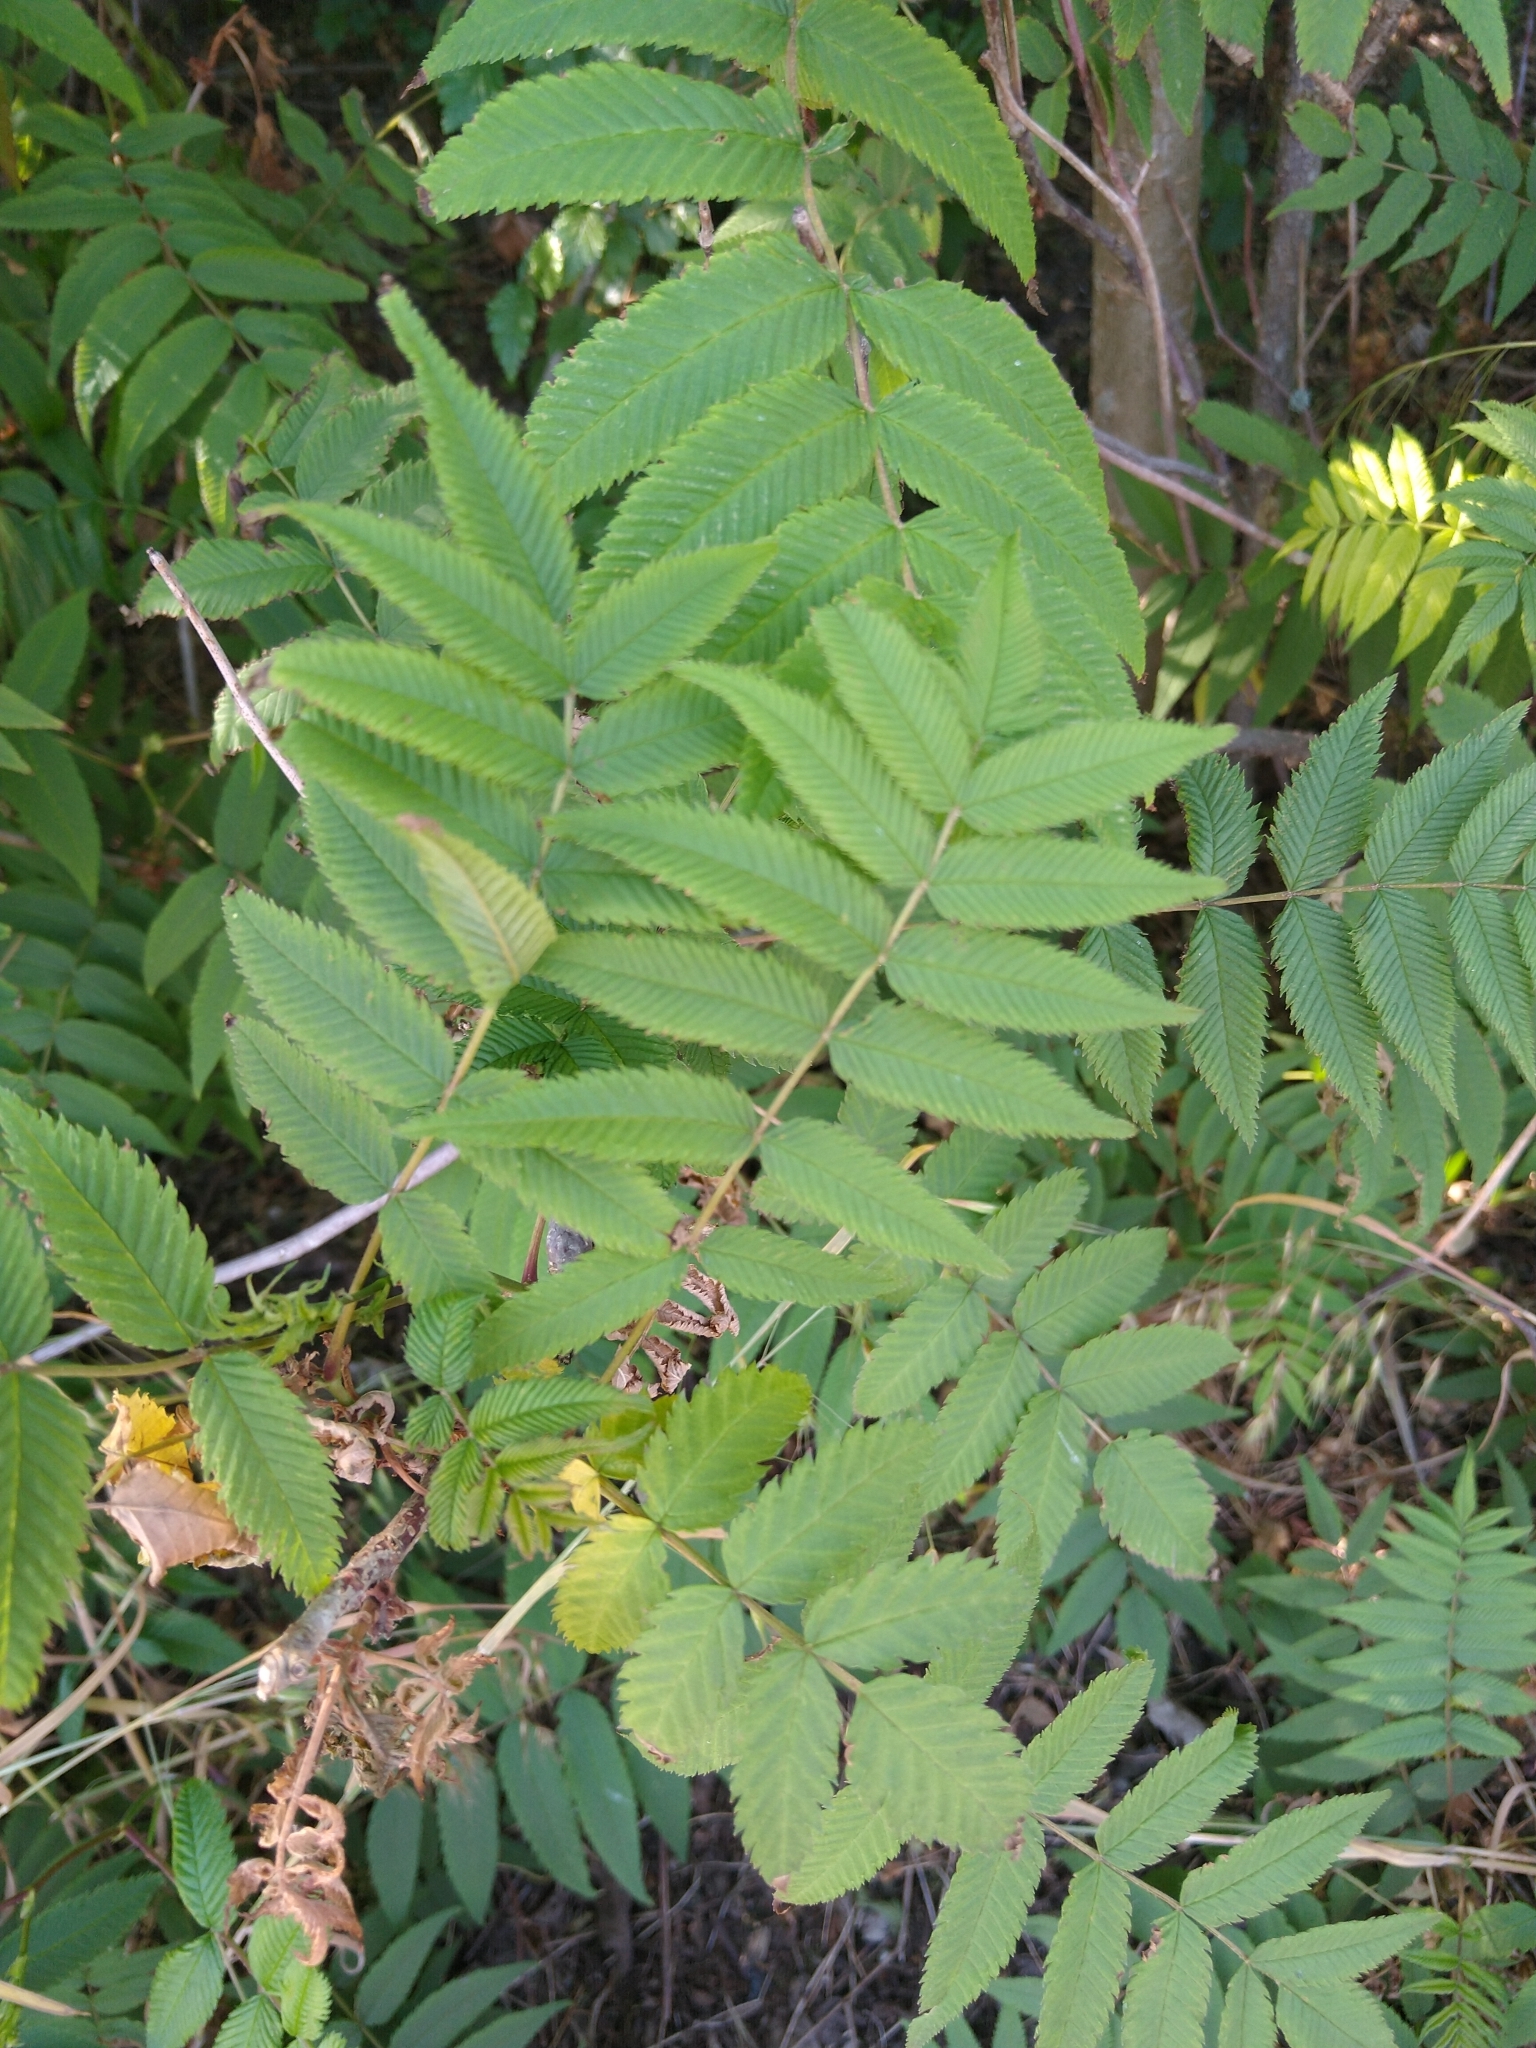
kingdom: Plantae
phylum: Tracheophyta
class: Magnoliopsida
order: Rosales
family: Rosaceae
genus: Sorbaria
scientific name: Sorbaria sorbifolia
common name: False spiraea
